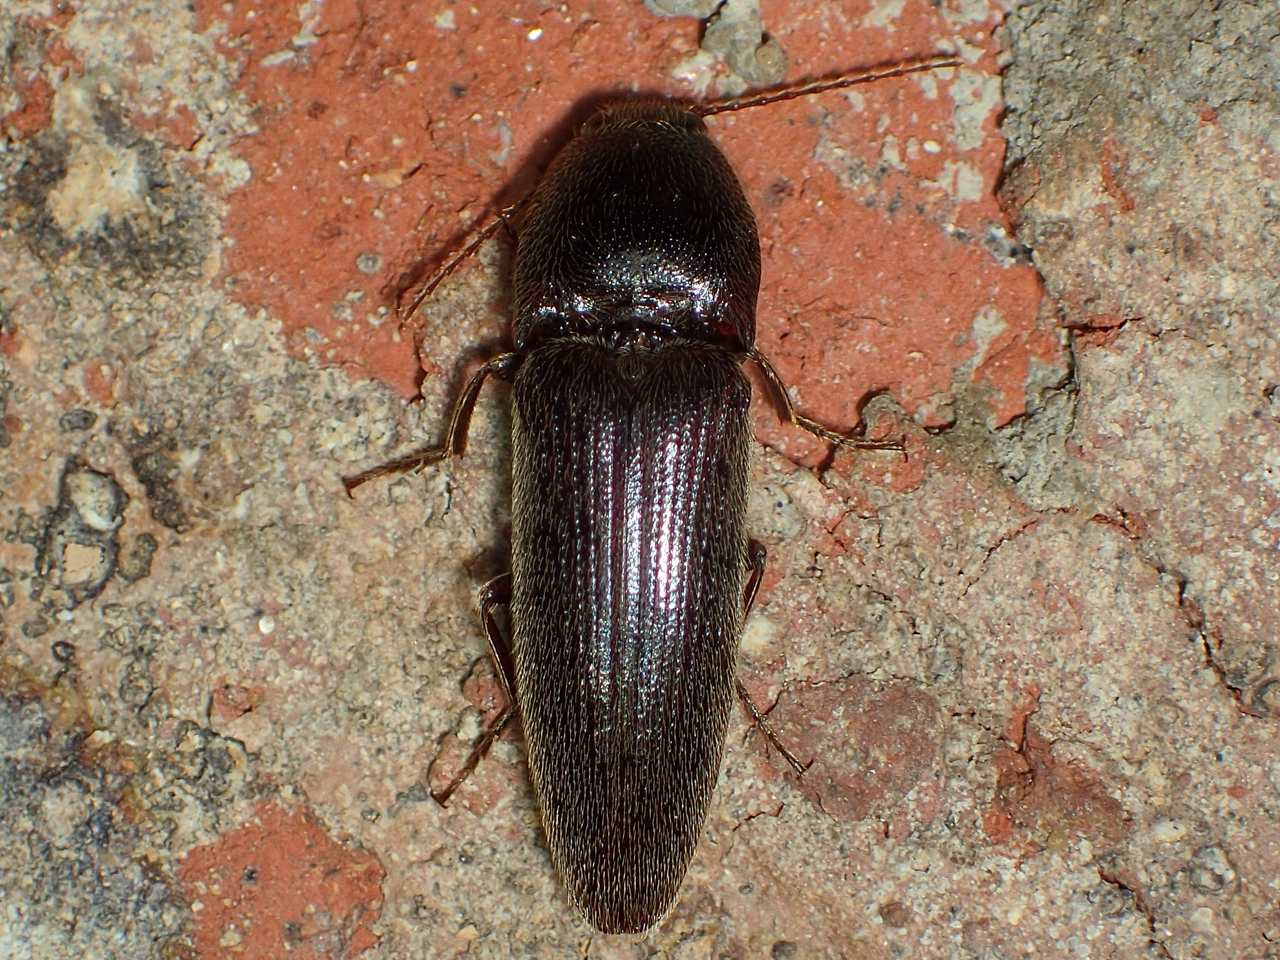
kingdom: Animalia
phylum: Arthropoda
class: Insecta
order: Coleoptera
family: Elateridae
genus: Melanotus
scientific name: Melanotus
